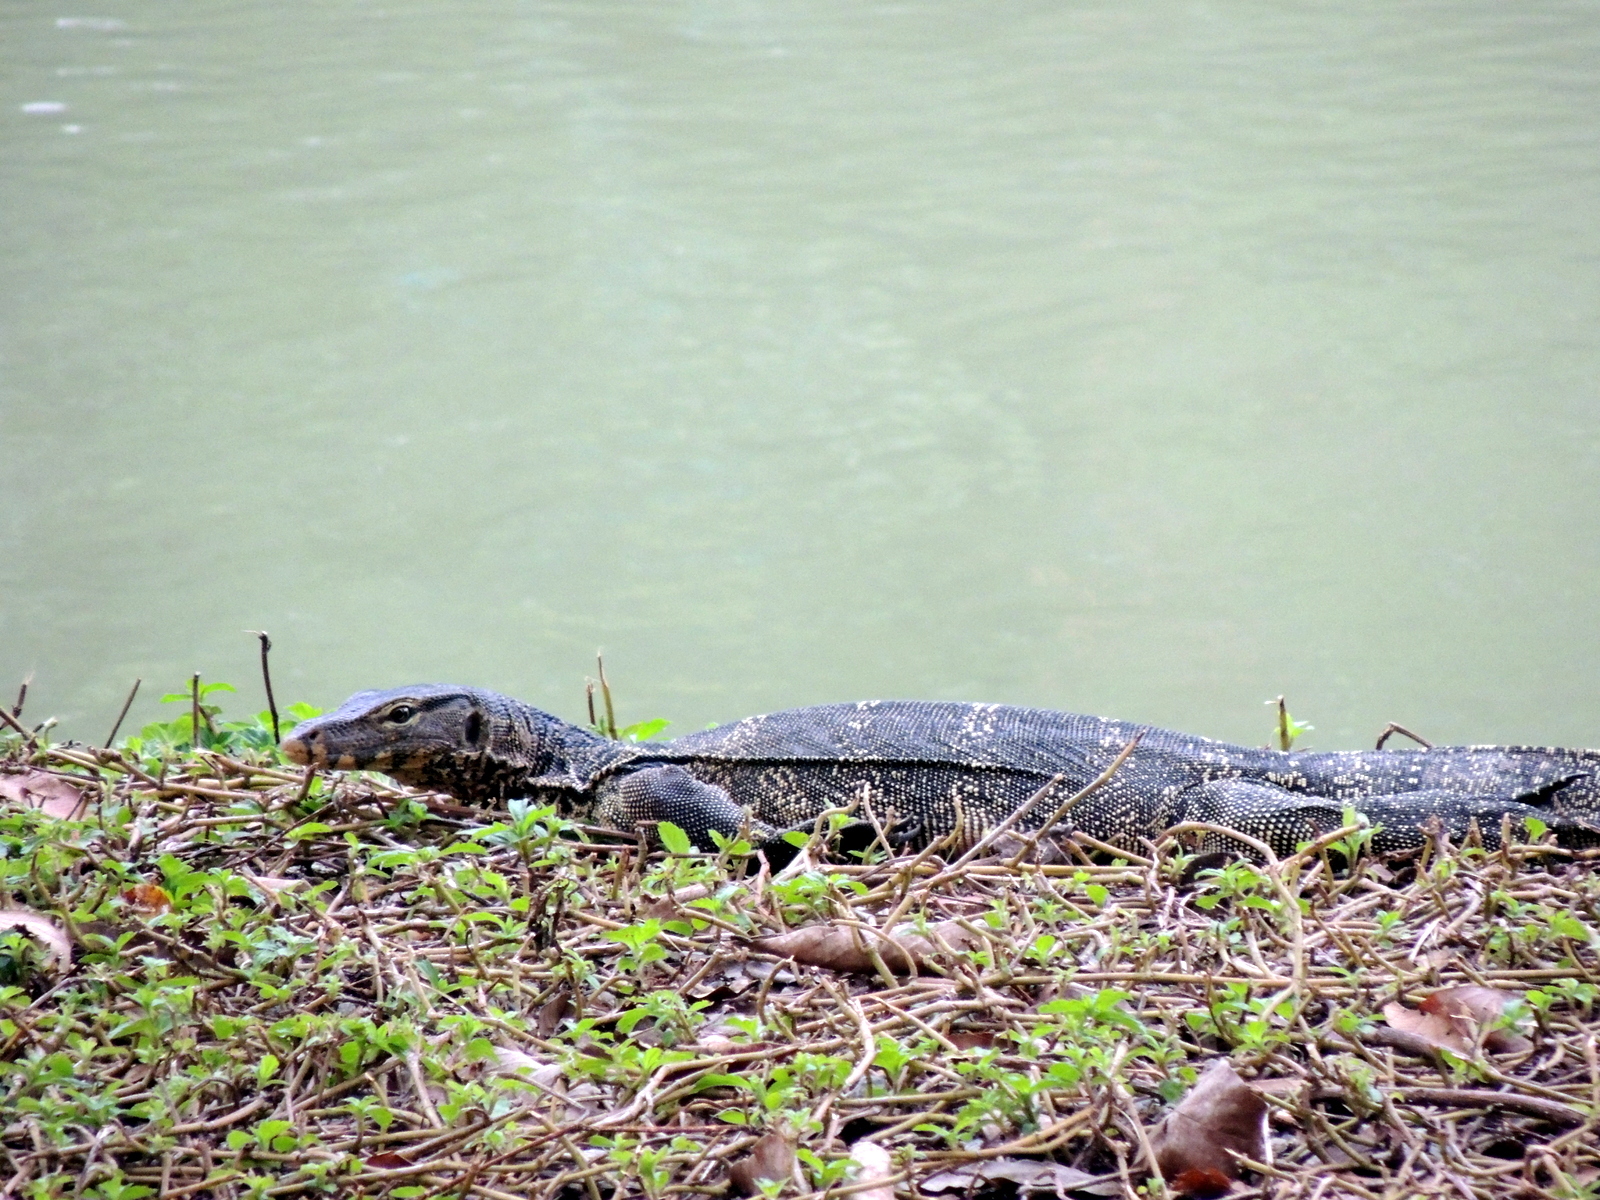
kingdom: Animalia
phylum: Chordata
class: Squamata
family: Varanidae
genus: Varanus
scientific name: Varanus salvator
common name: Common water monitor
